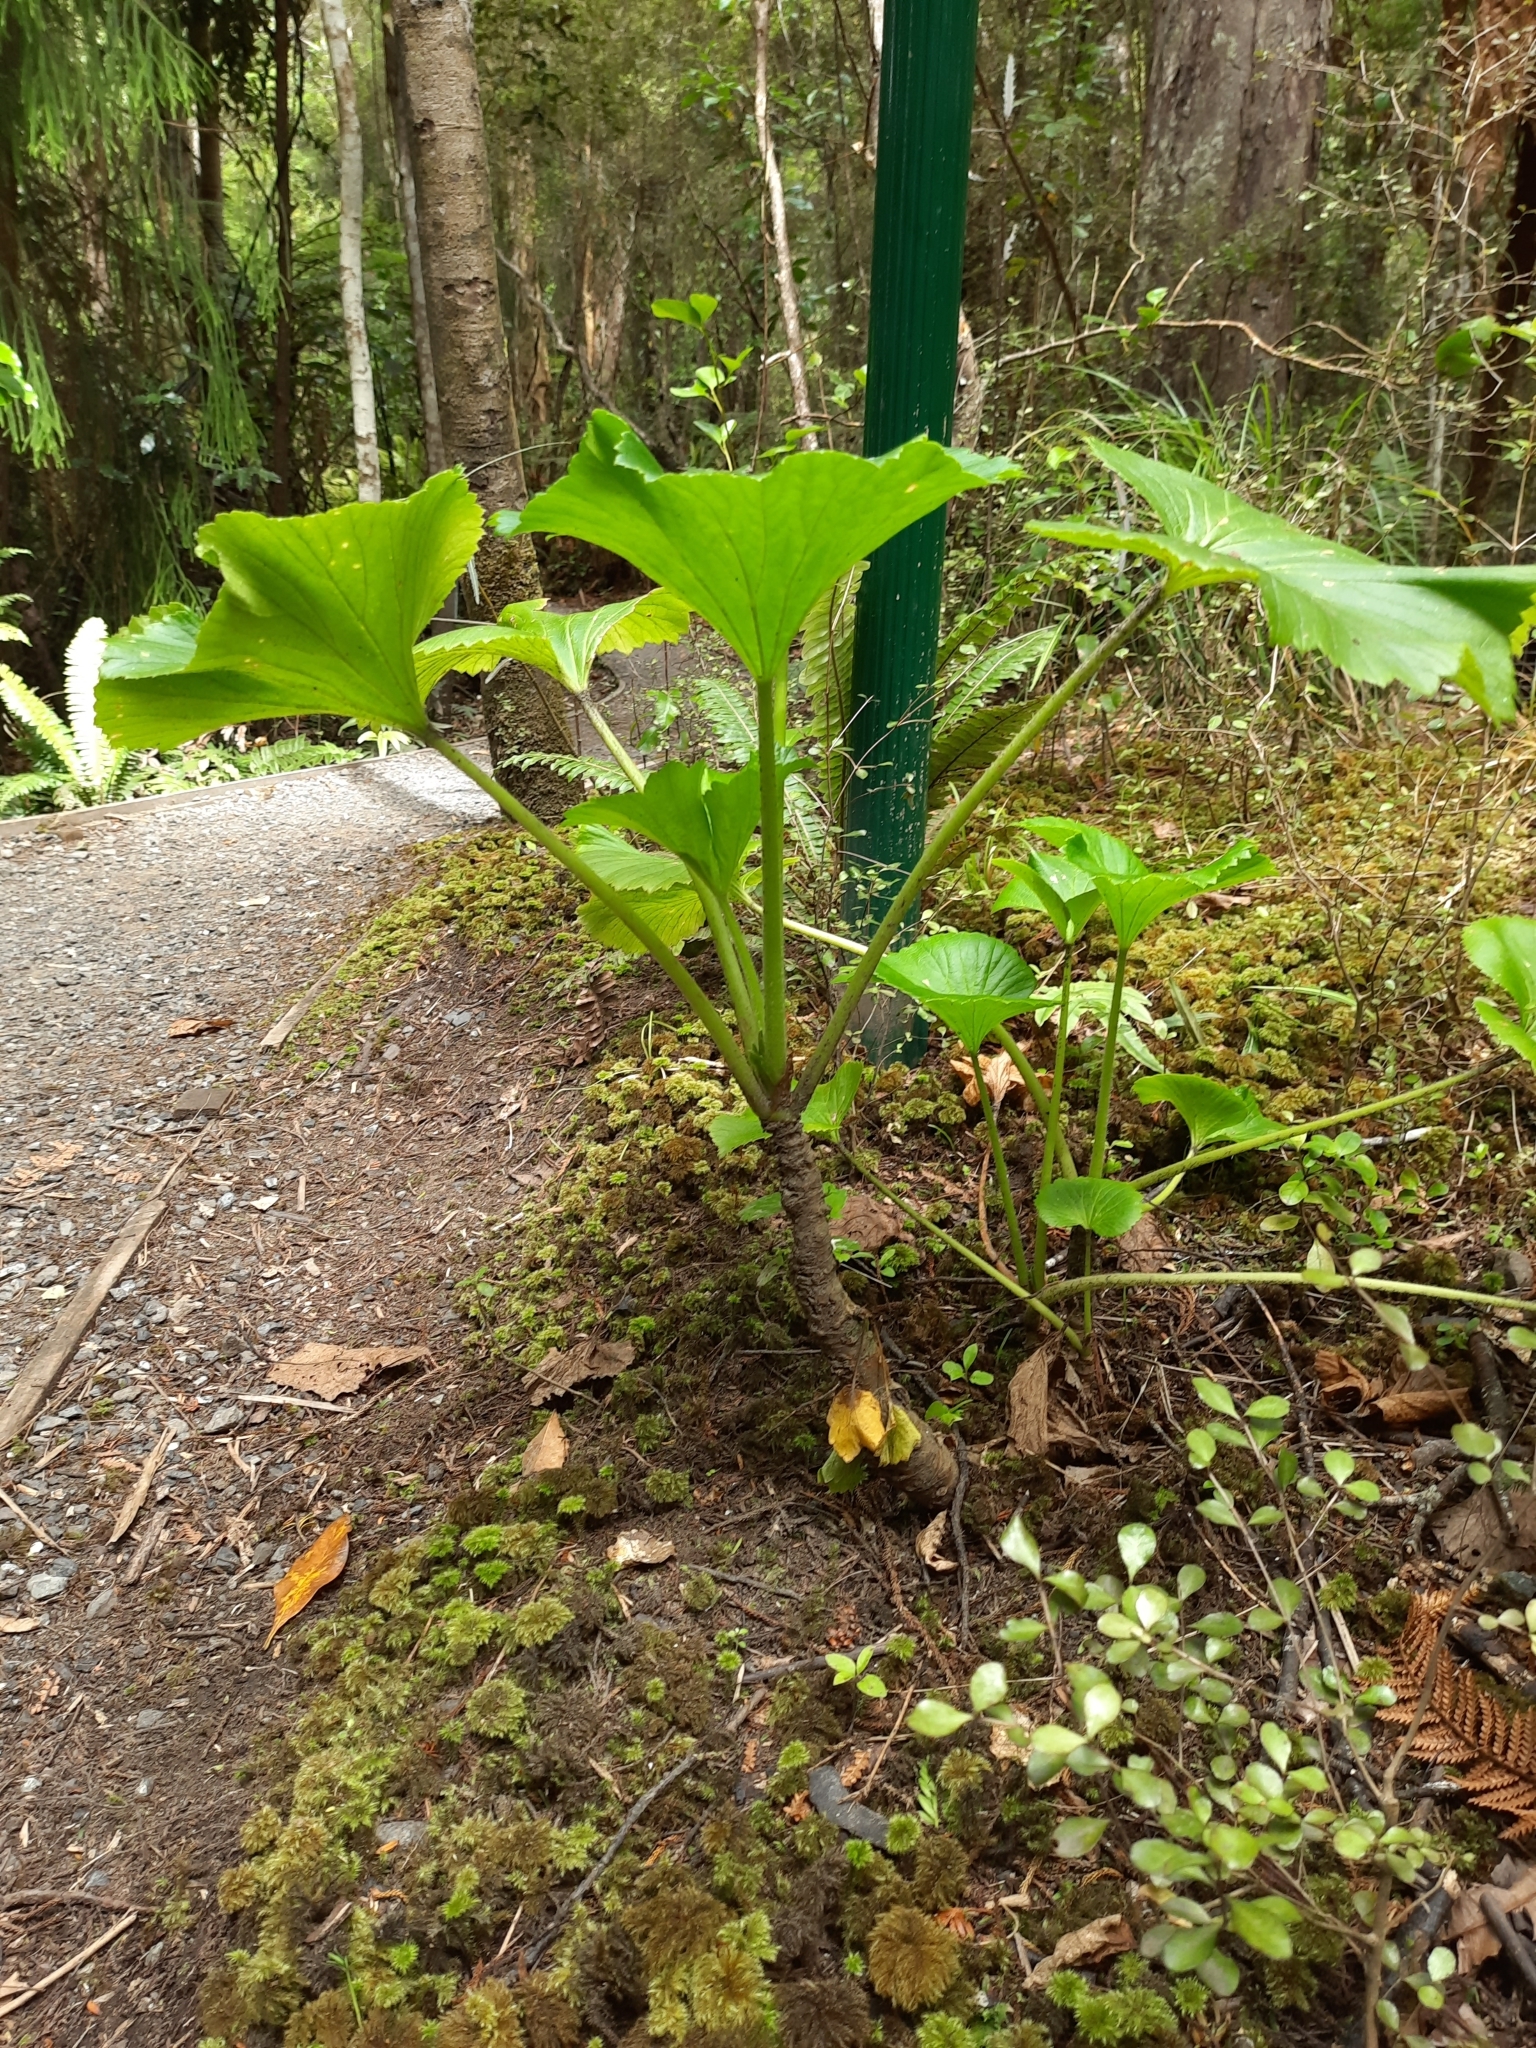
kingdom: Plantae
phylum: Tracheophyta
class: Magnoliopsida
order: Apiales
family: Apiaceae
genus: Azorella
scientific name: Azorella lyallii
